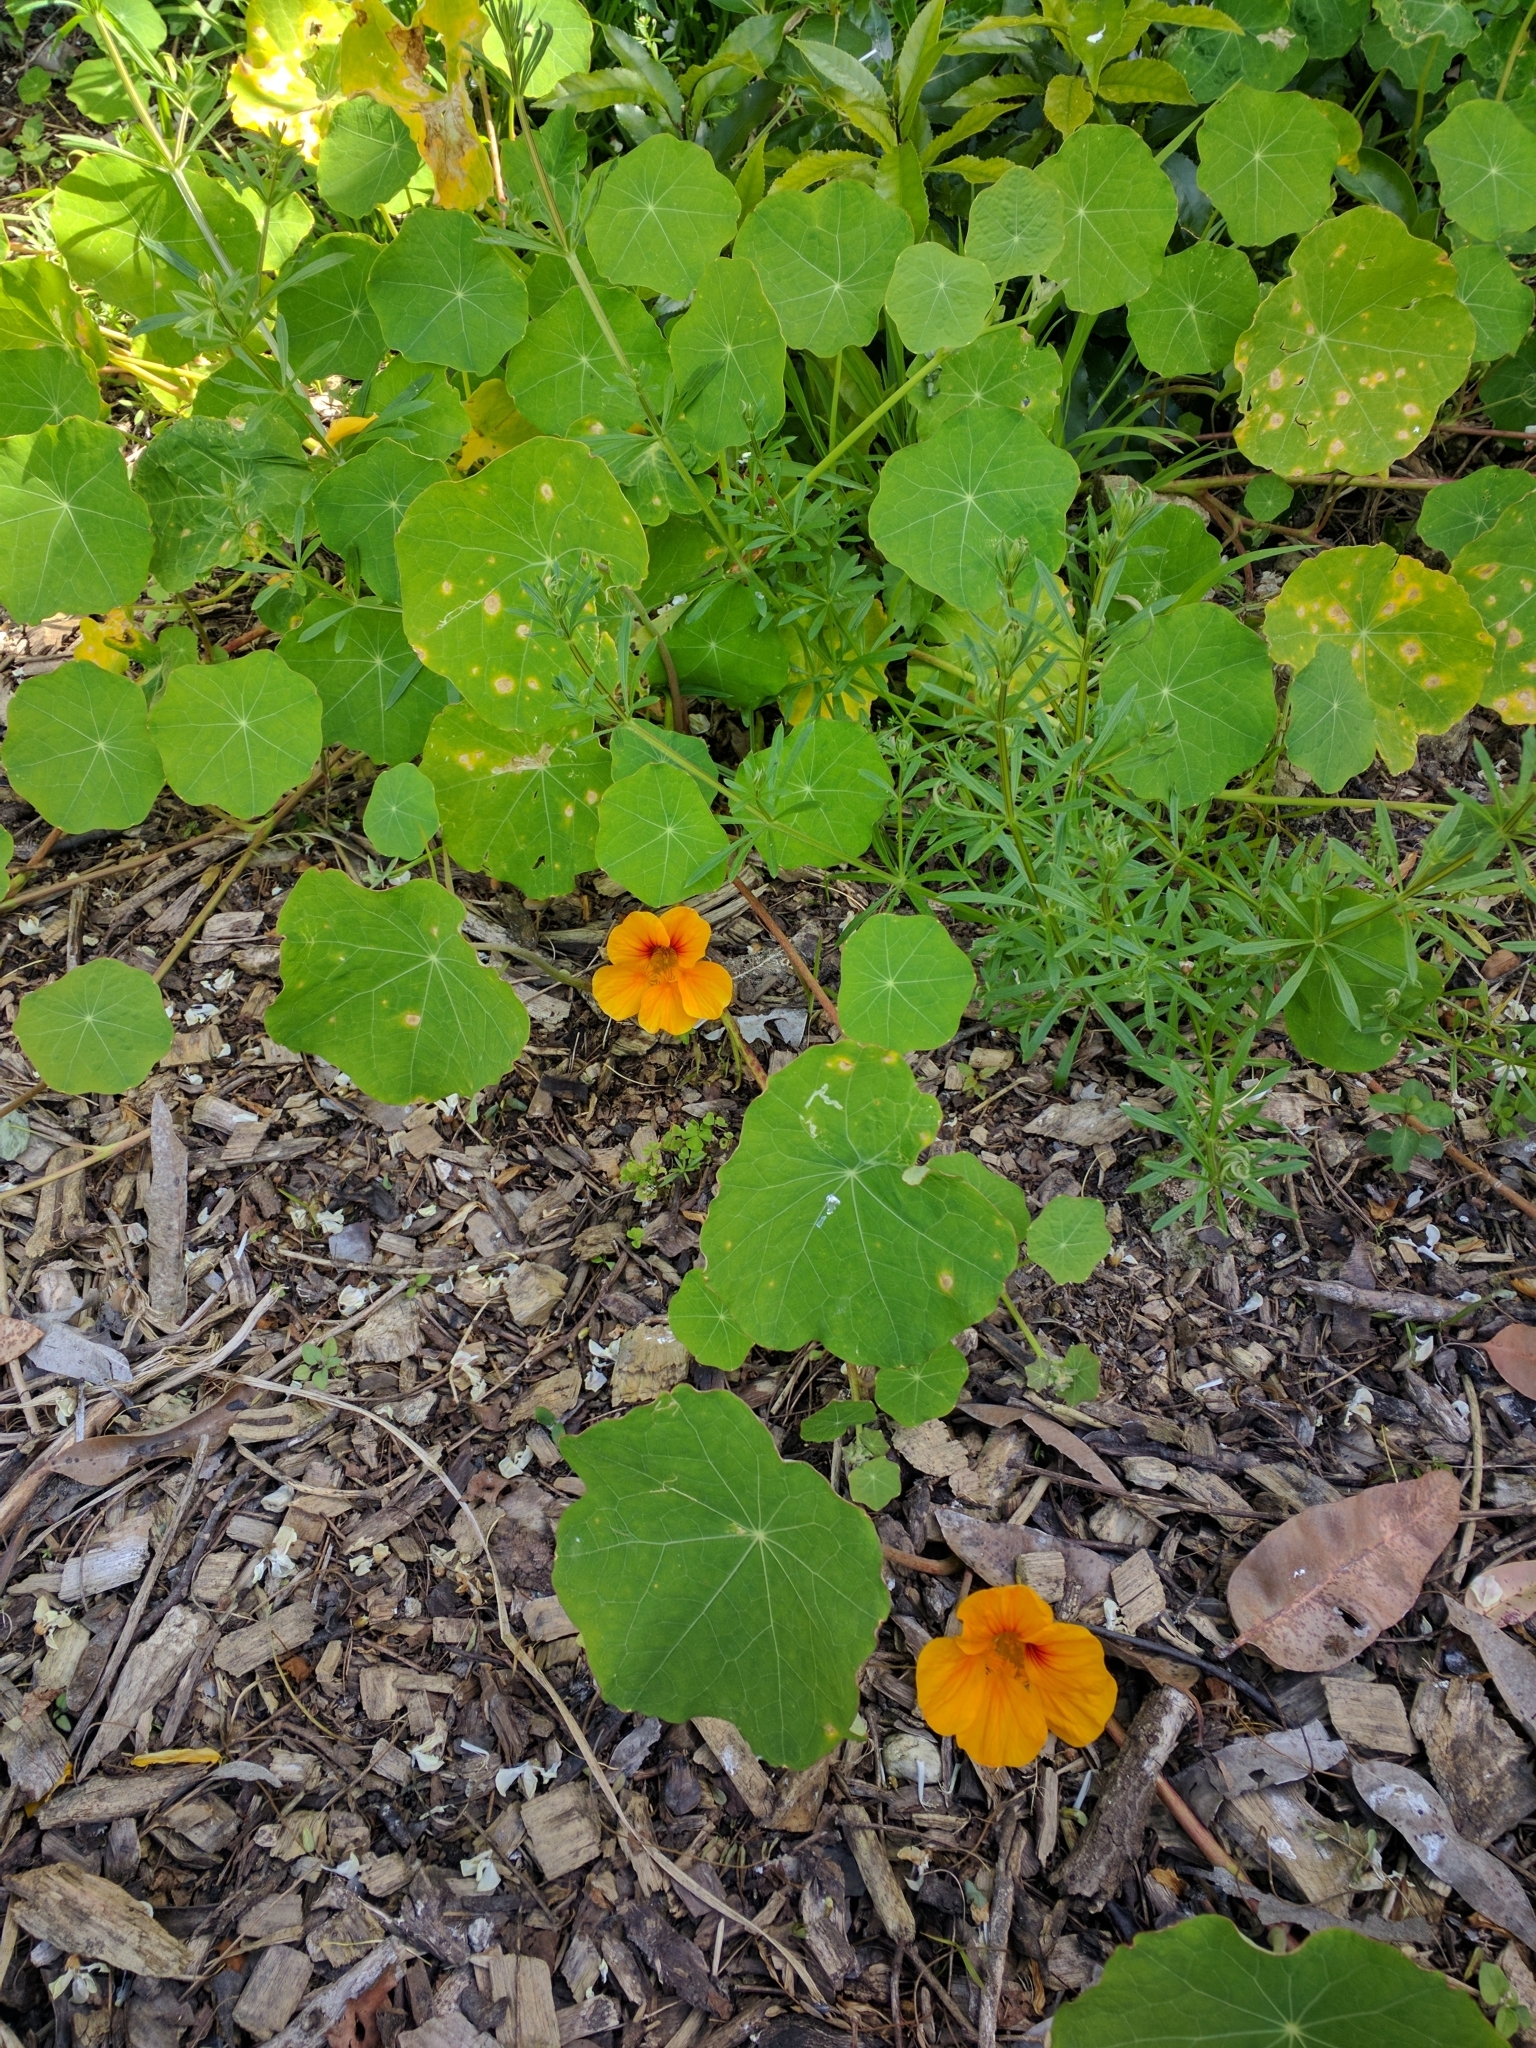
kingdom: Plantae
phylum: Tracheophyta
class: Magnoliopsida
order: Brassicales
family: Tropaeolaceae
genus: Tropaeolum
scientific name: Tropaeolum majus
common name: Nasturtium
